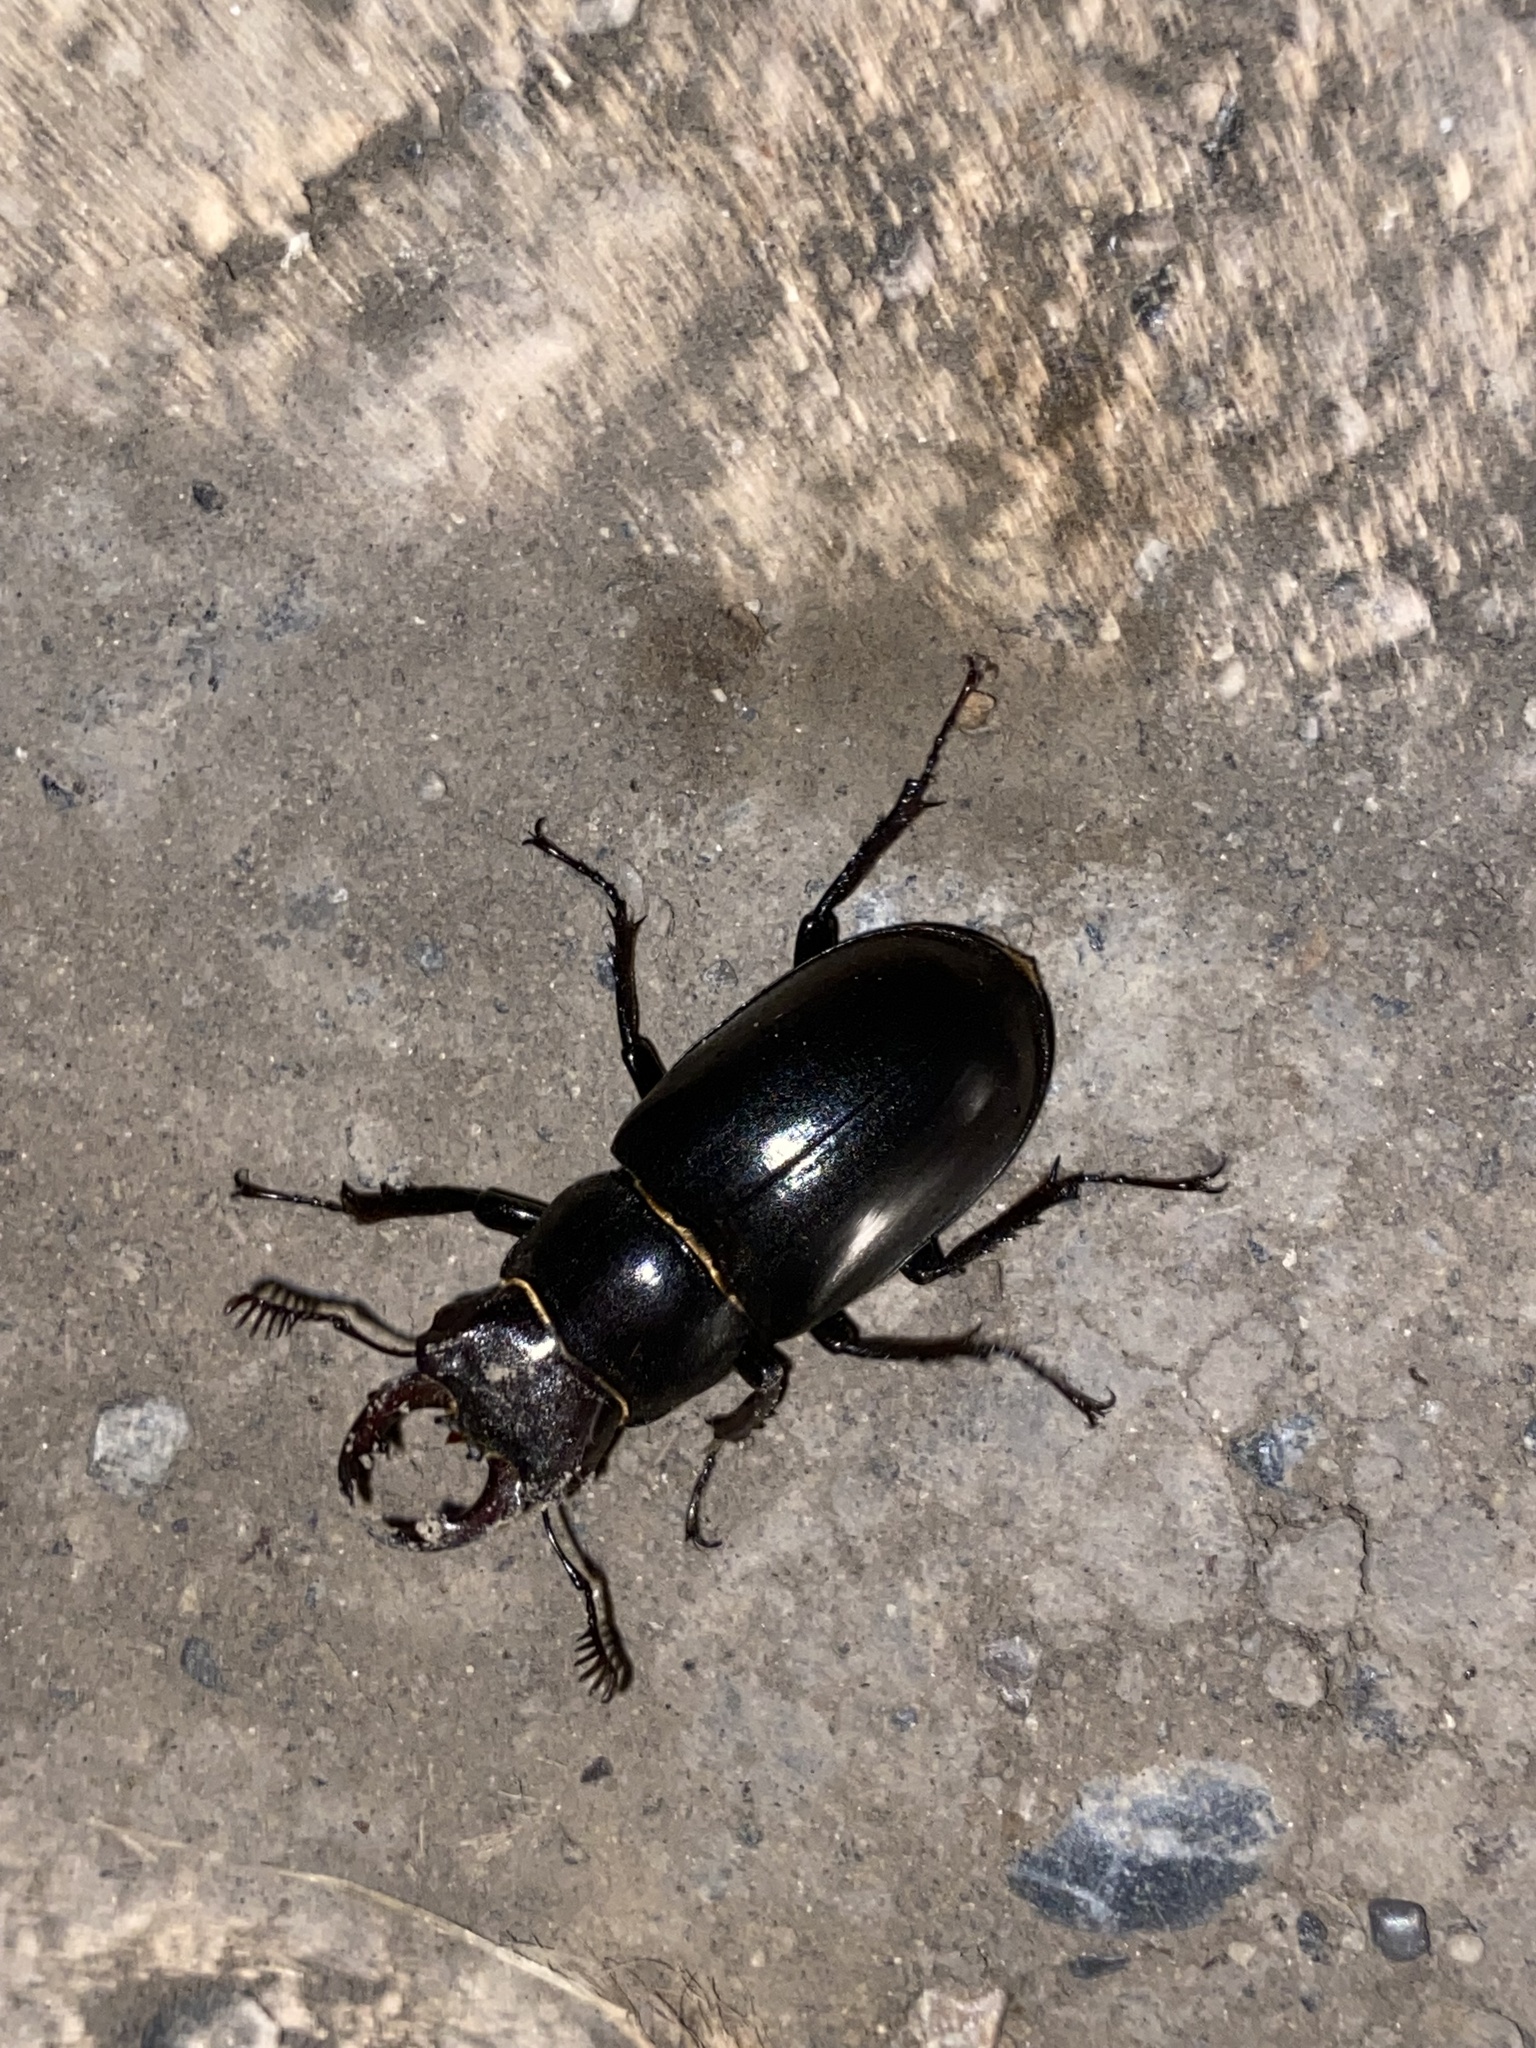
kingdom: Animalia
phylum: Arthropoda
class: Insecta
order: Coleoptera
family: Lucanidae
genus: Lucanus
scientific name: Lucanus ibericus
